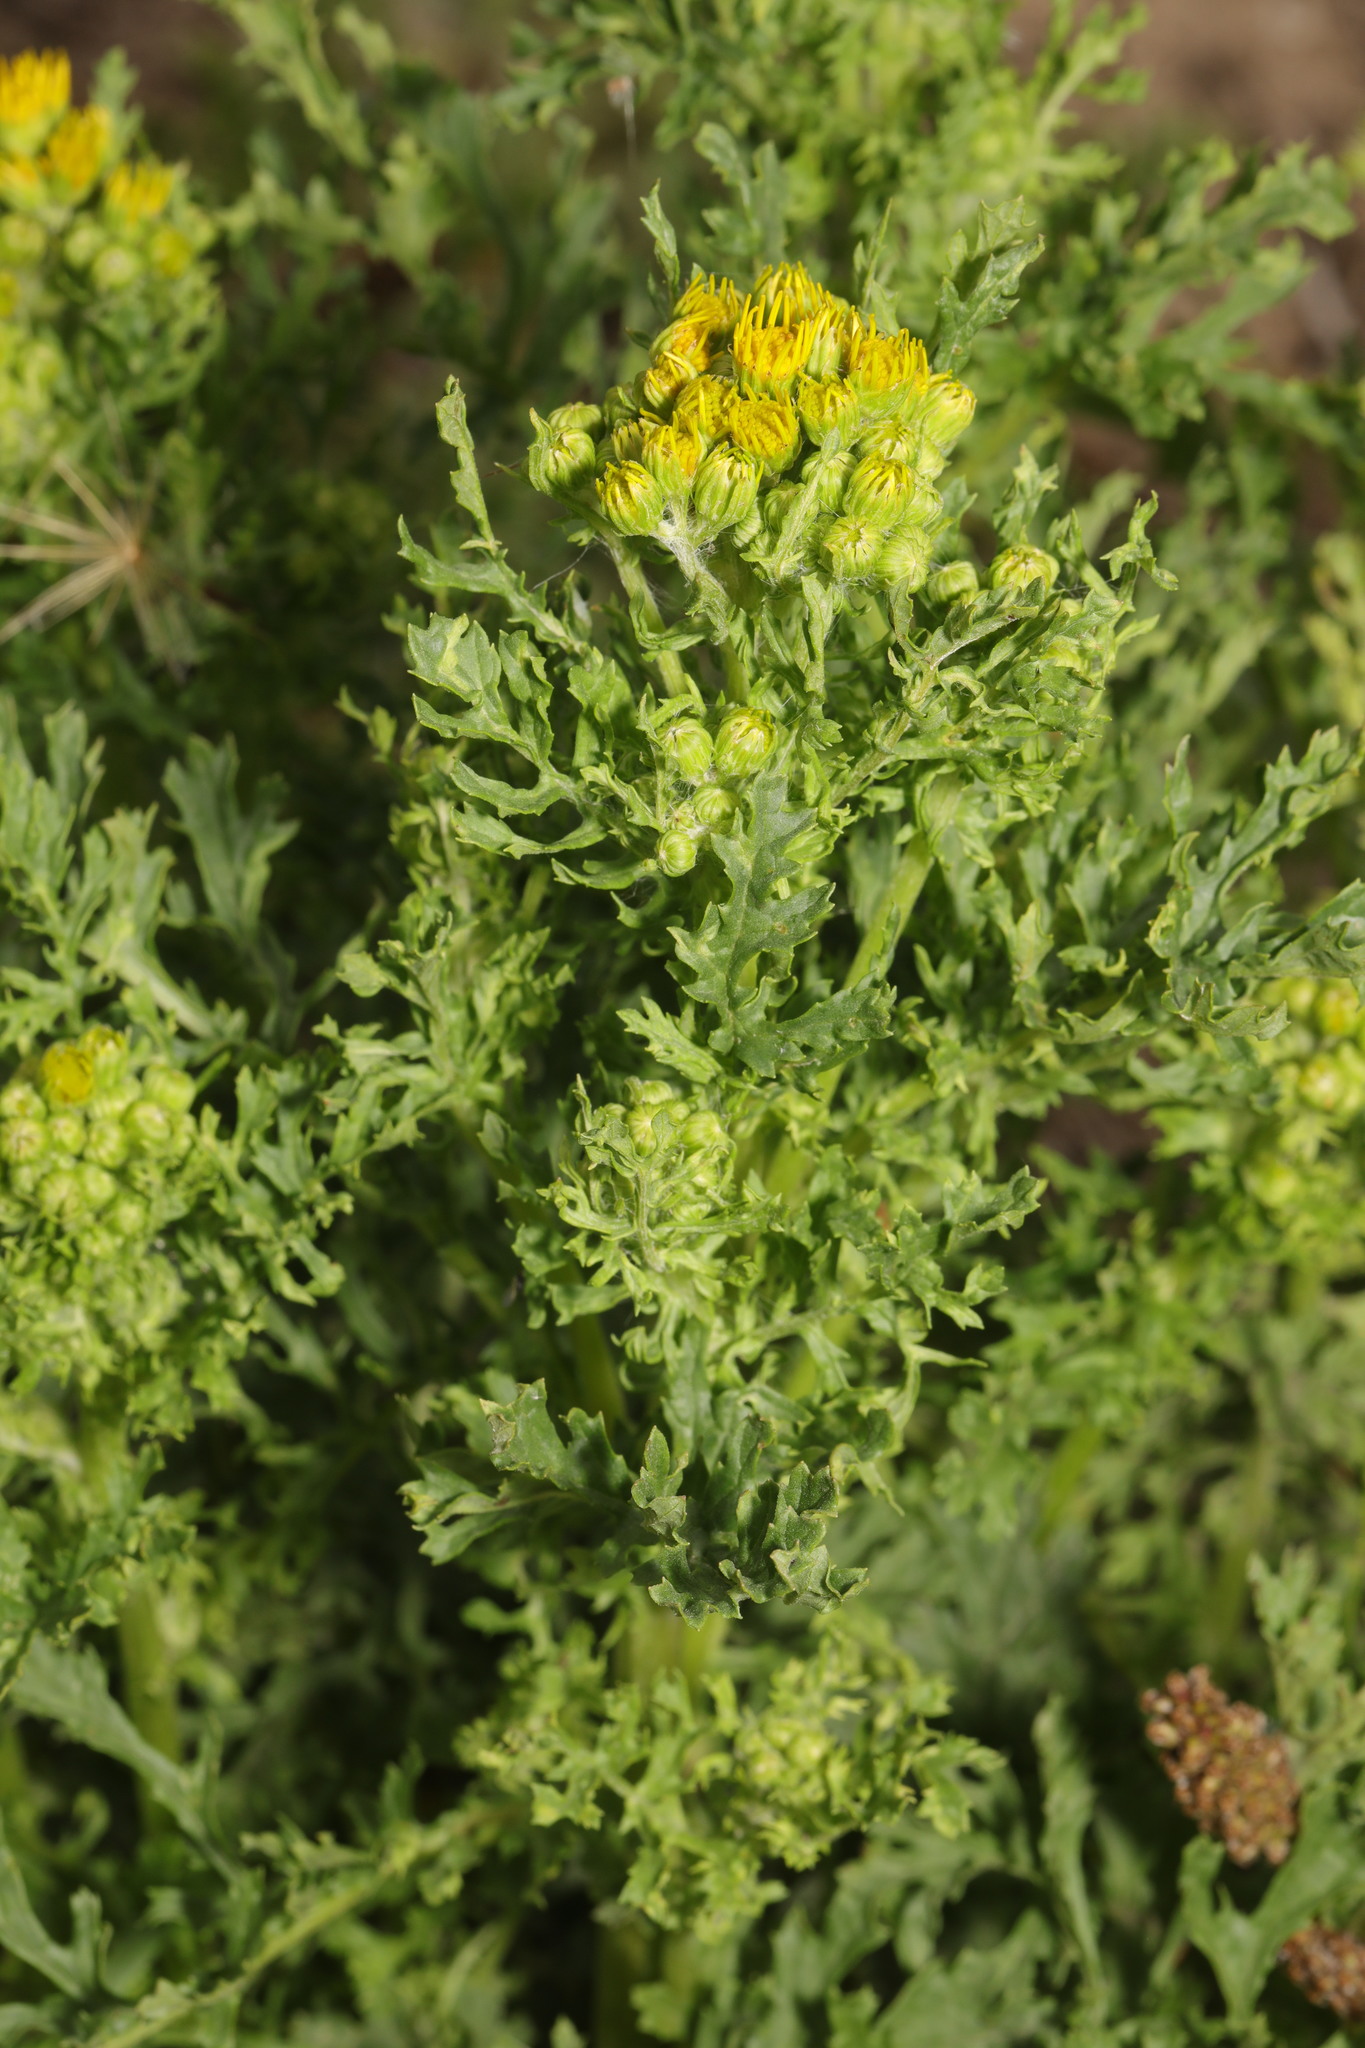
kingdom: Plantae
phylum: Tracheophyta
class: Magnoliopsida
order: Asterales
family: Asteraceae
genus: Jacobaea
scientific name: Jacobaea vulgaris
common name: Stinking willie
